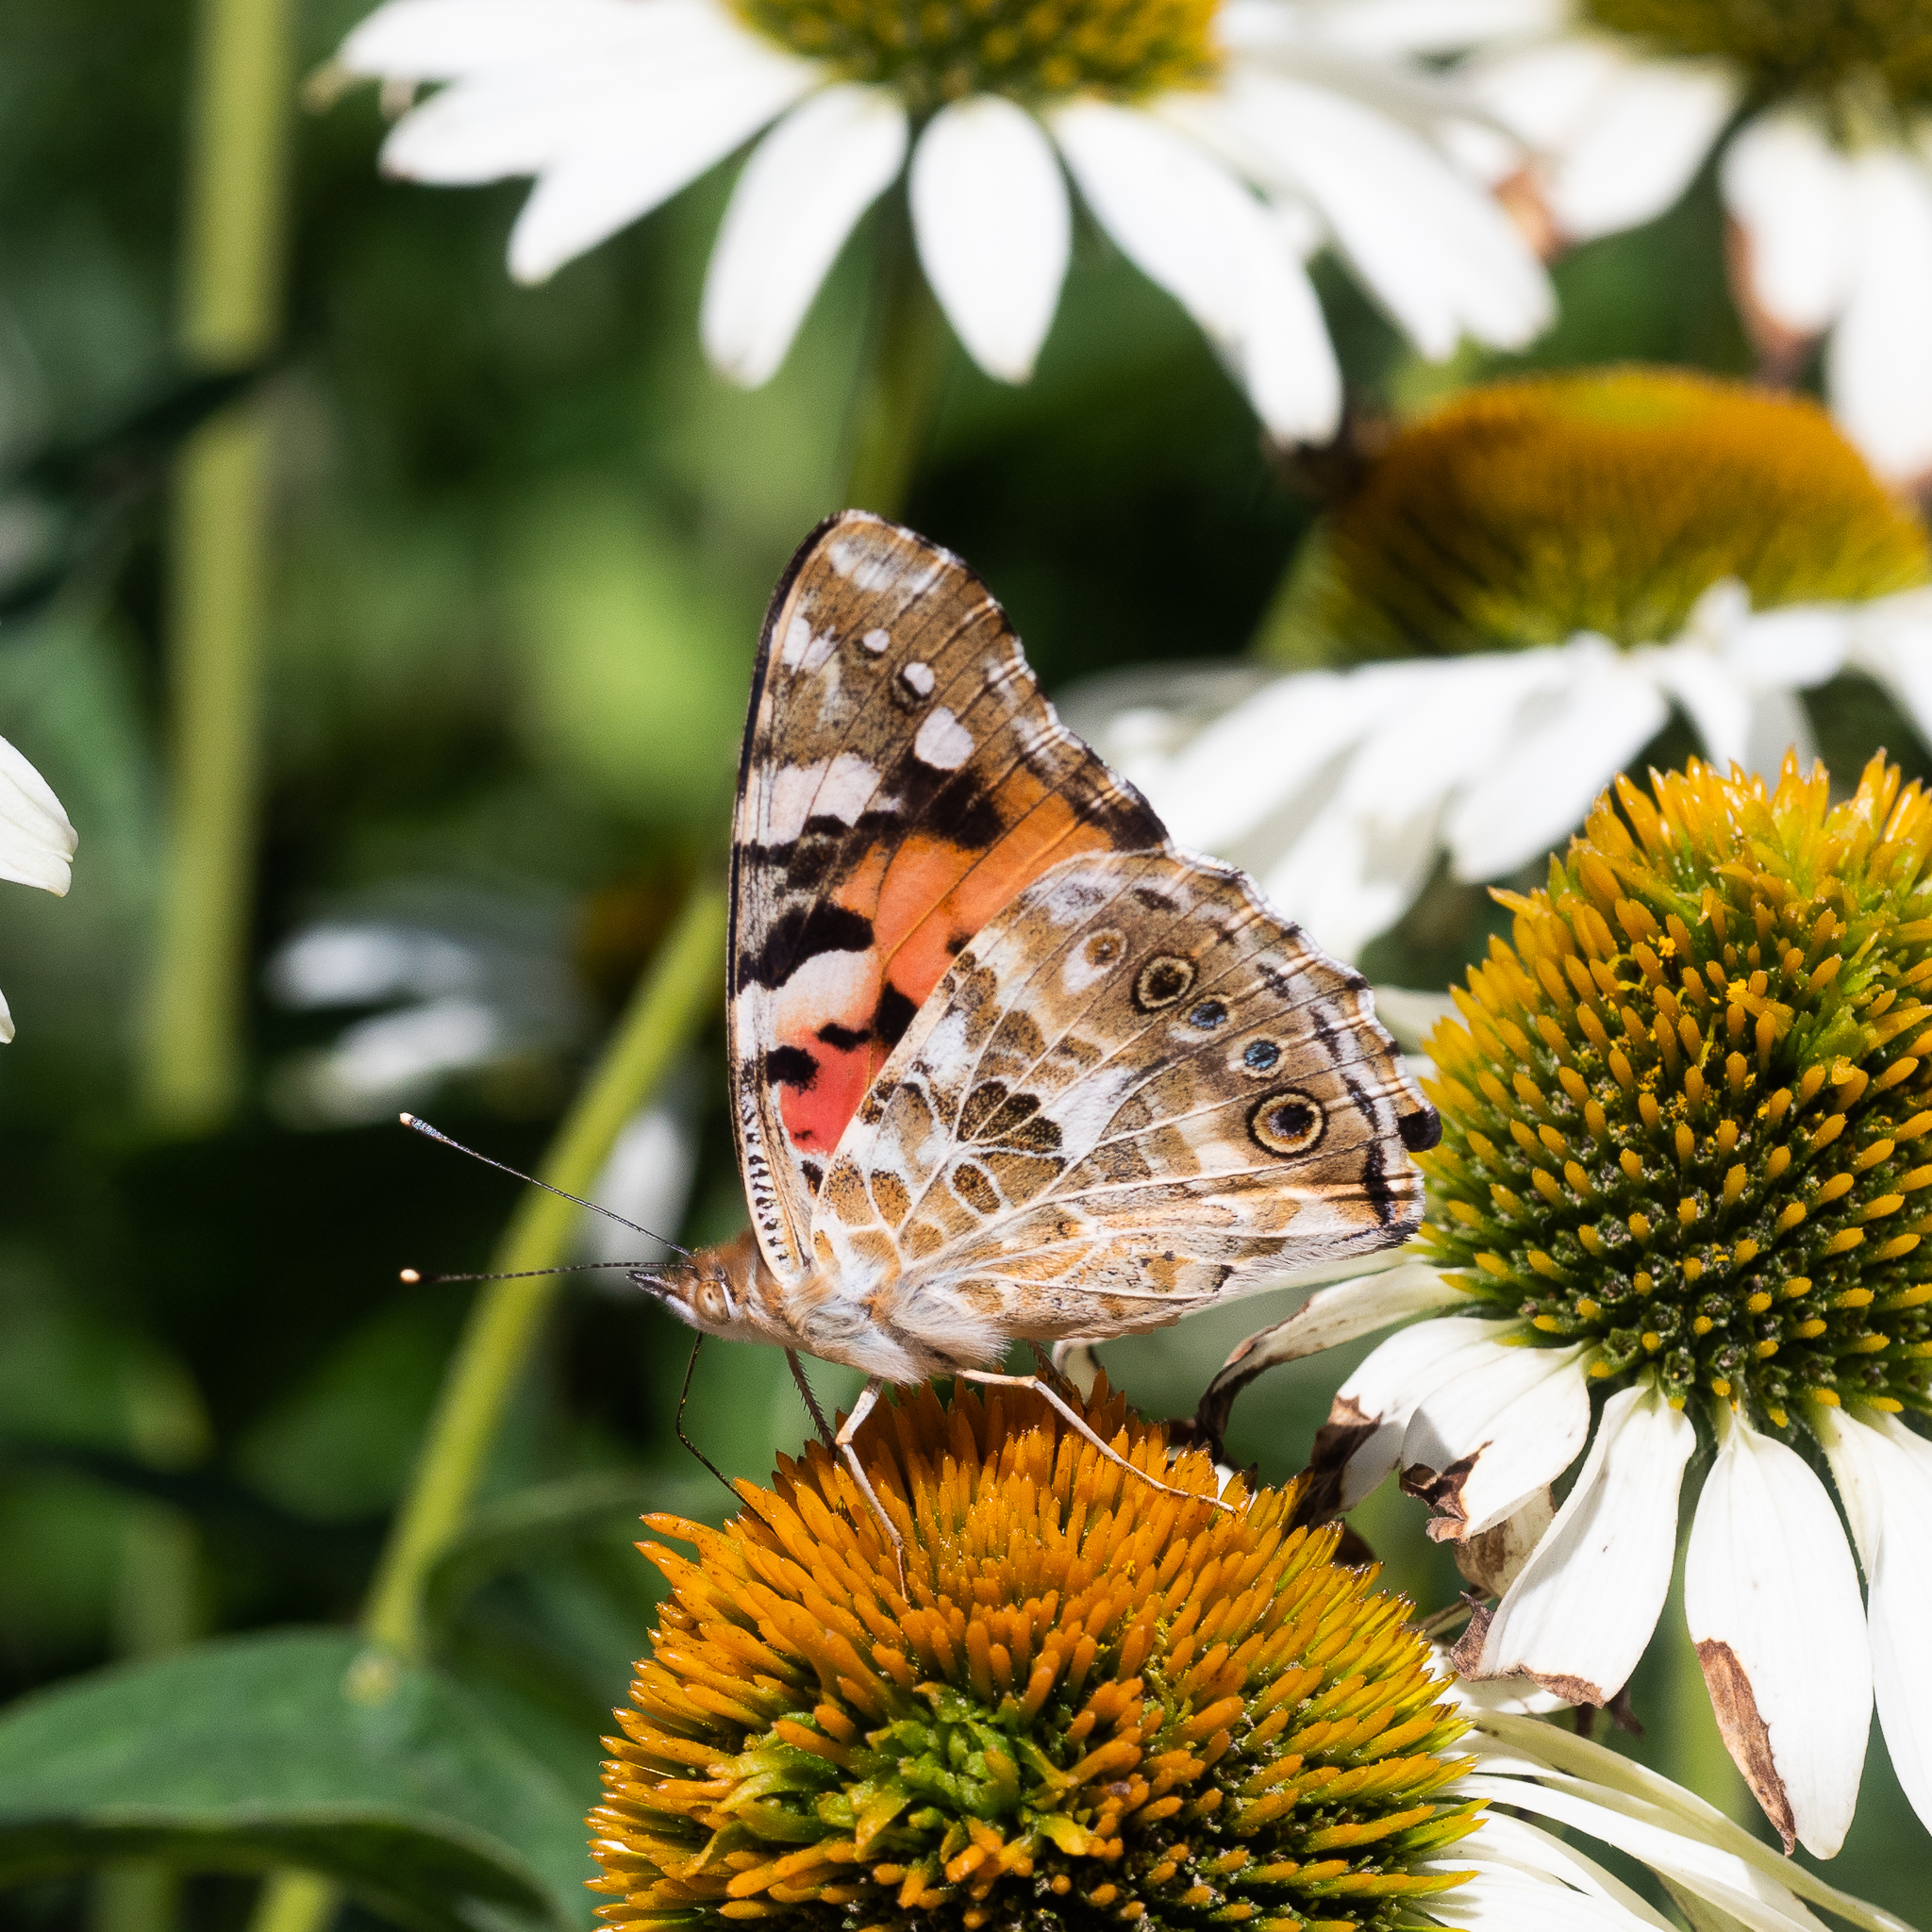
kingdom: Animalia
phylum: Arthropoda
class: Insecta
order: Lepidoptera
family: Nymphalidae
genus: Vanessa
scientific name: Vanessa cardui
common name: Painted lady
